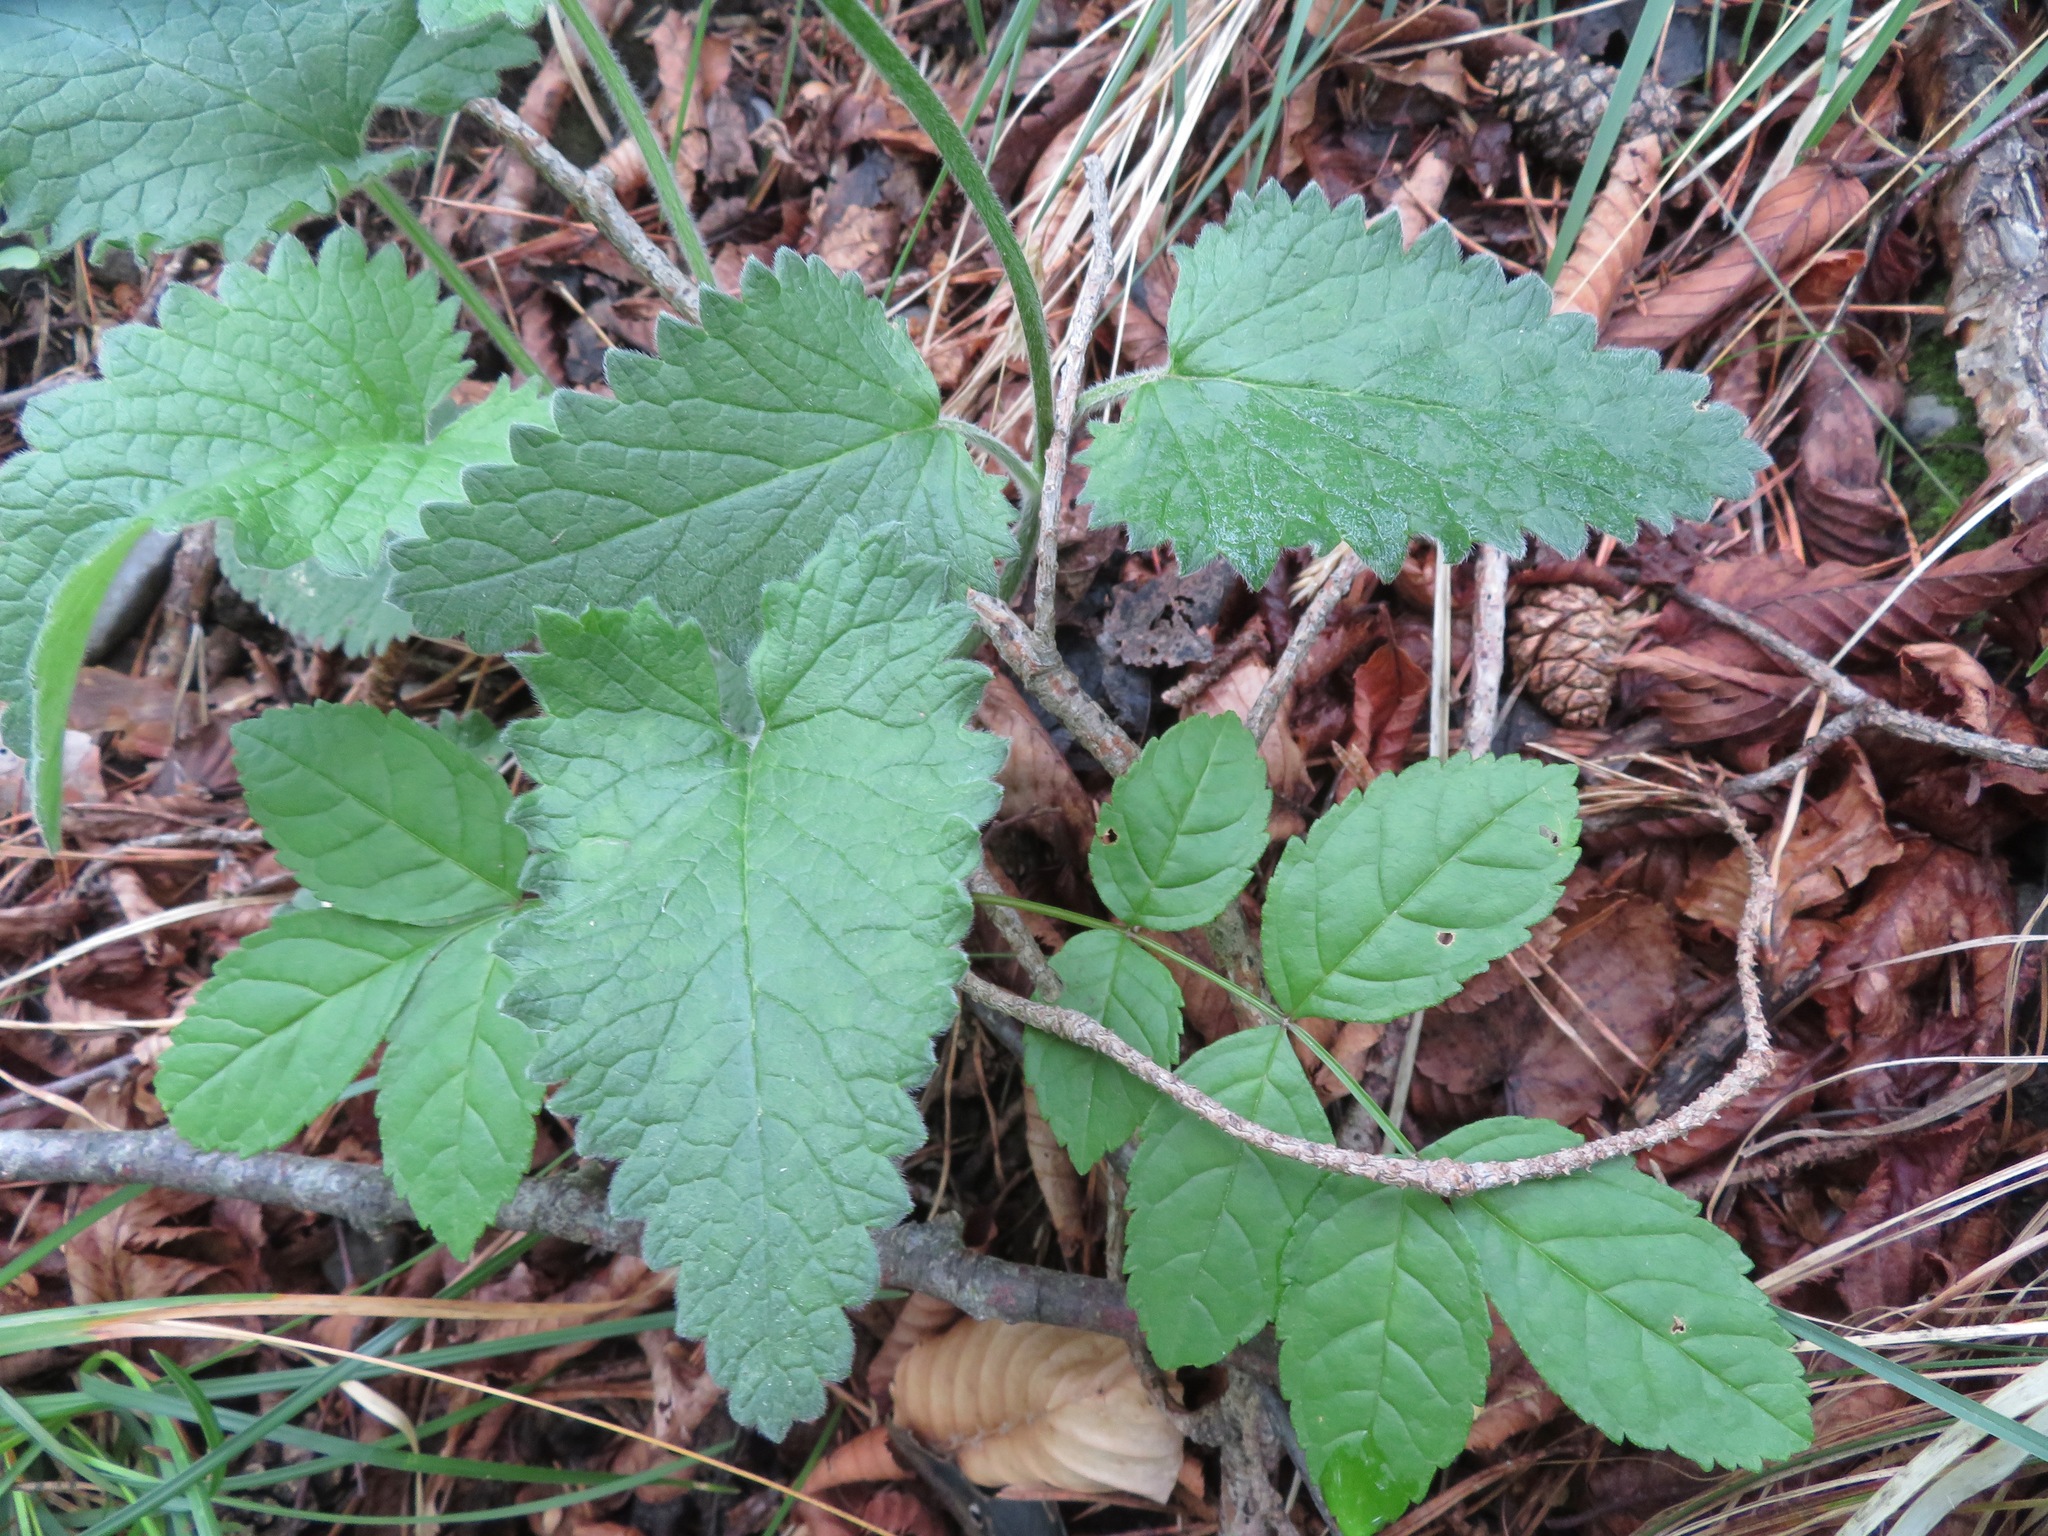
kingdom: Plantae
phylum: Tracheophyta
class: Magnoliopsida
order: Lamiales
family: Lamiaceae
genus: Betonica
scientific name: Betonica alopecuros
